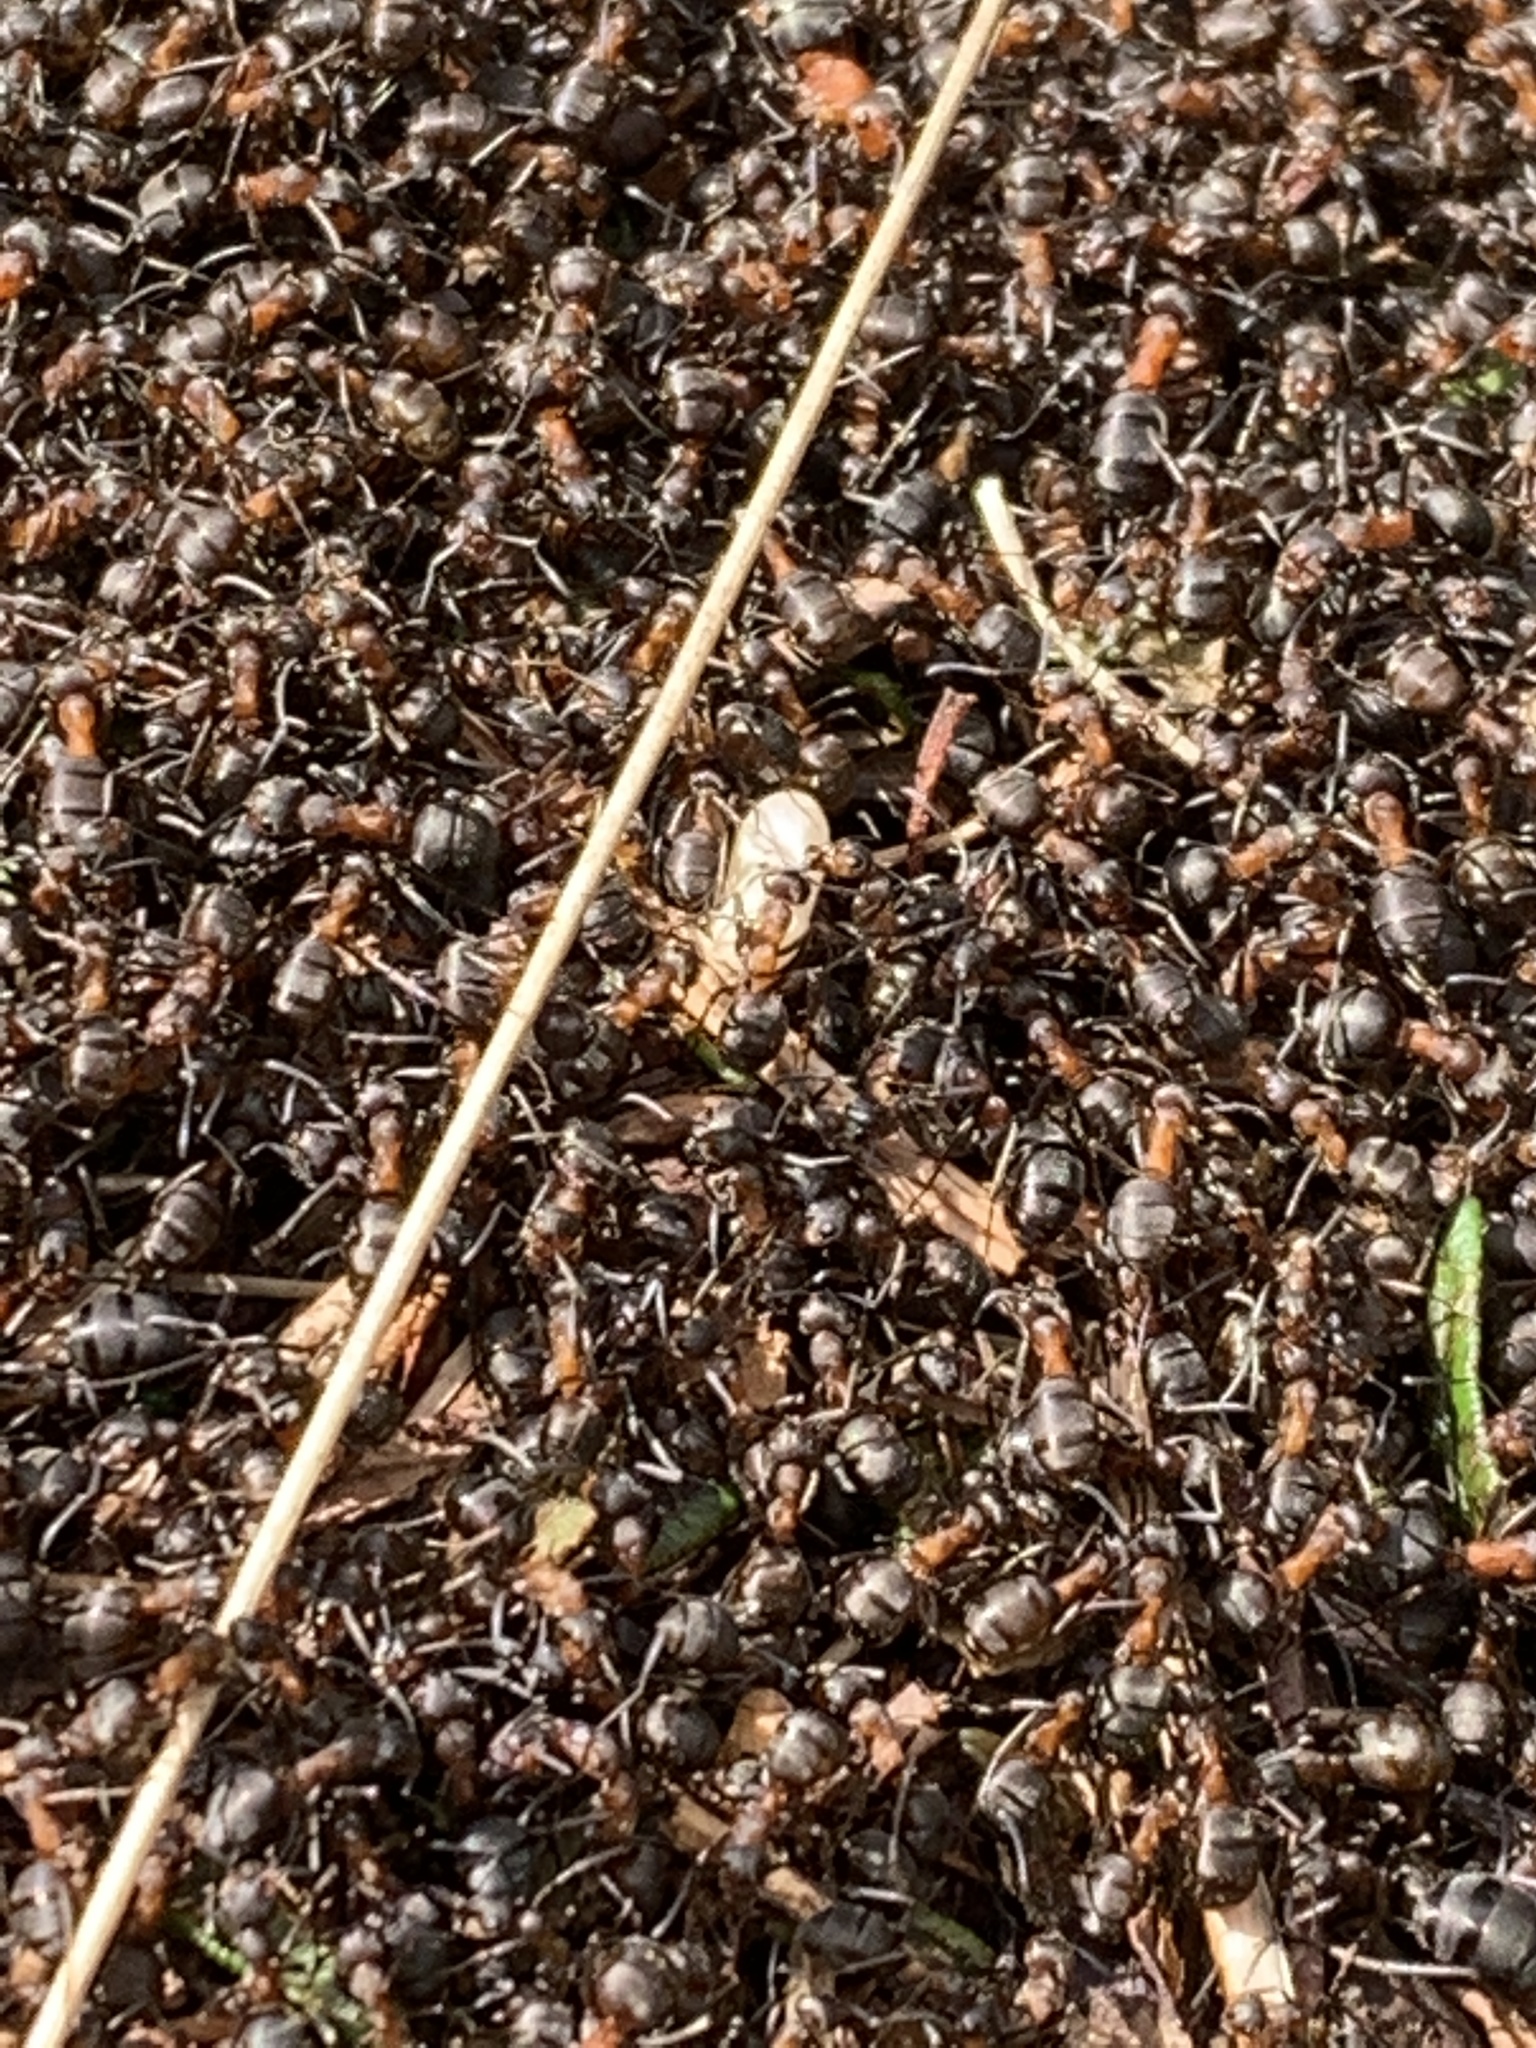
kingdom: Animalia
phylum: Arthropoda
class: Insecta
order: Hymenoptera
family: Formicidae
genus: Formica
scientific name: Formica lugubris
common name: Sinister mound ant
